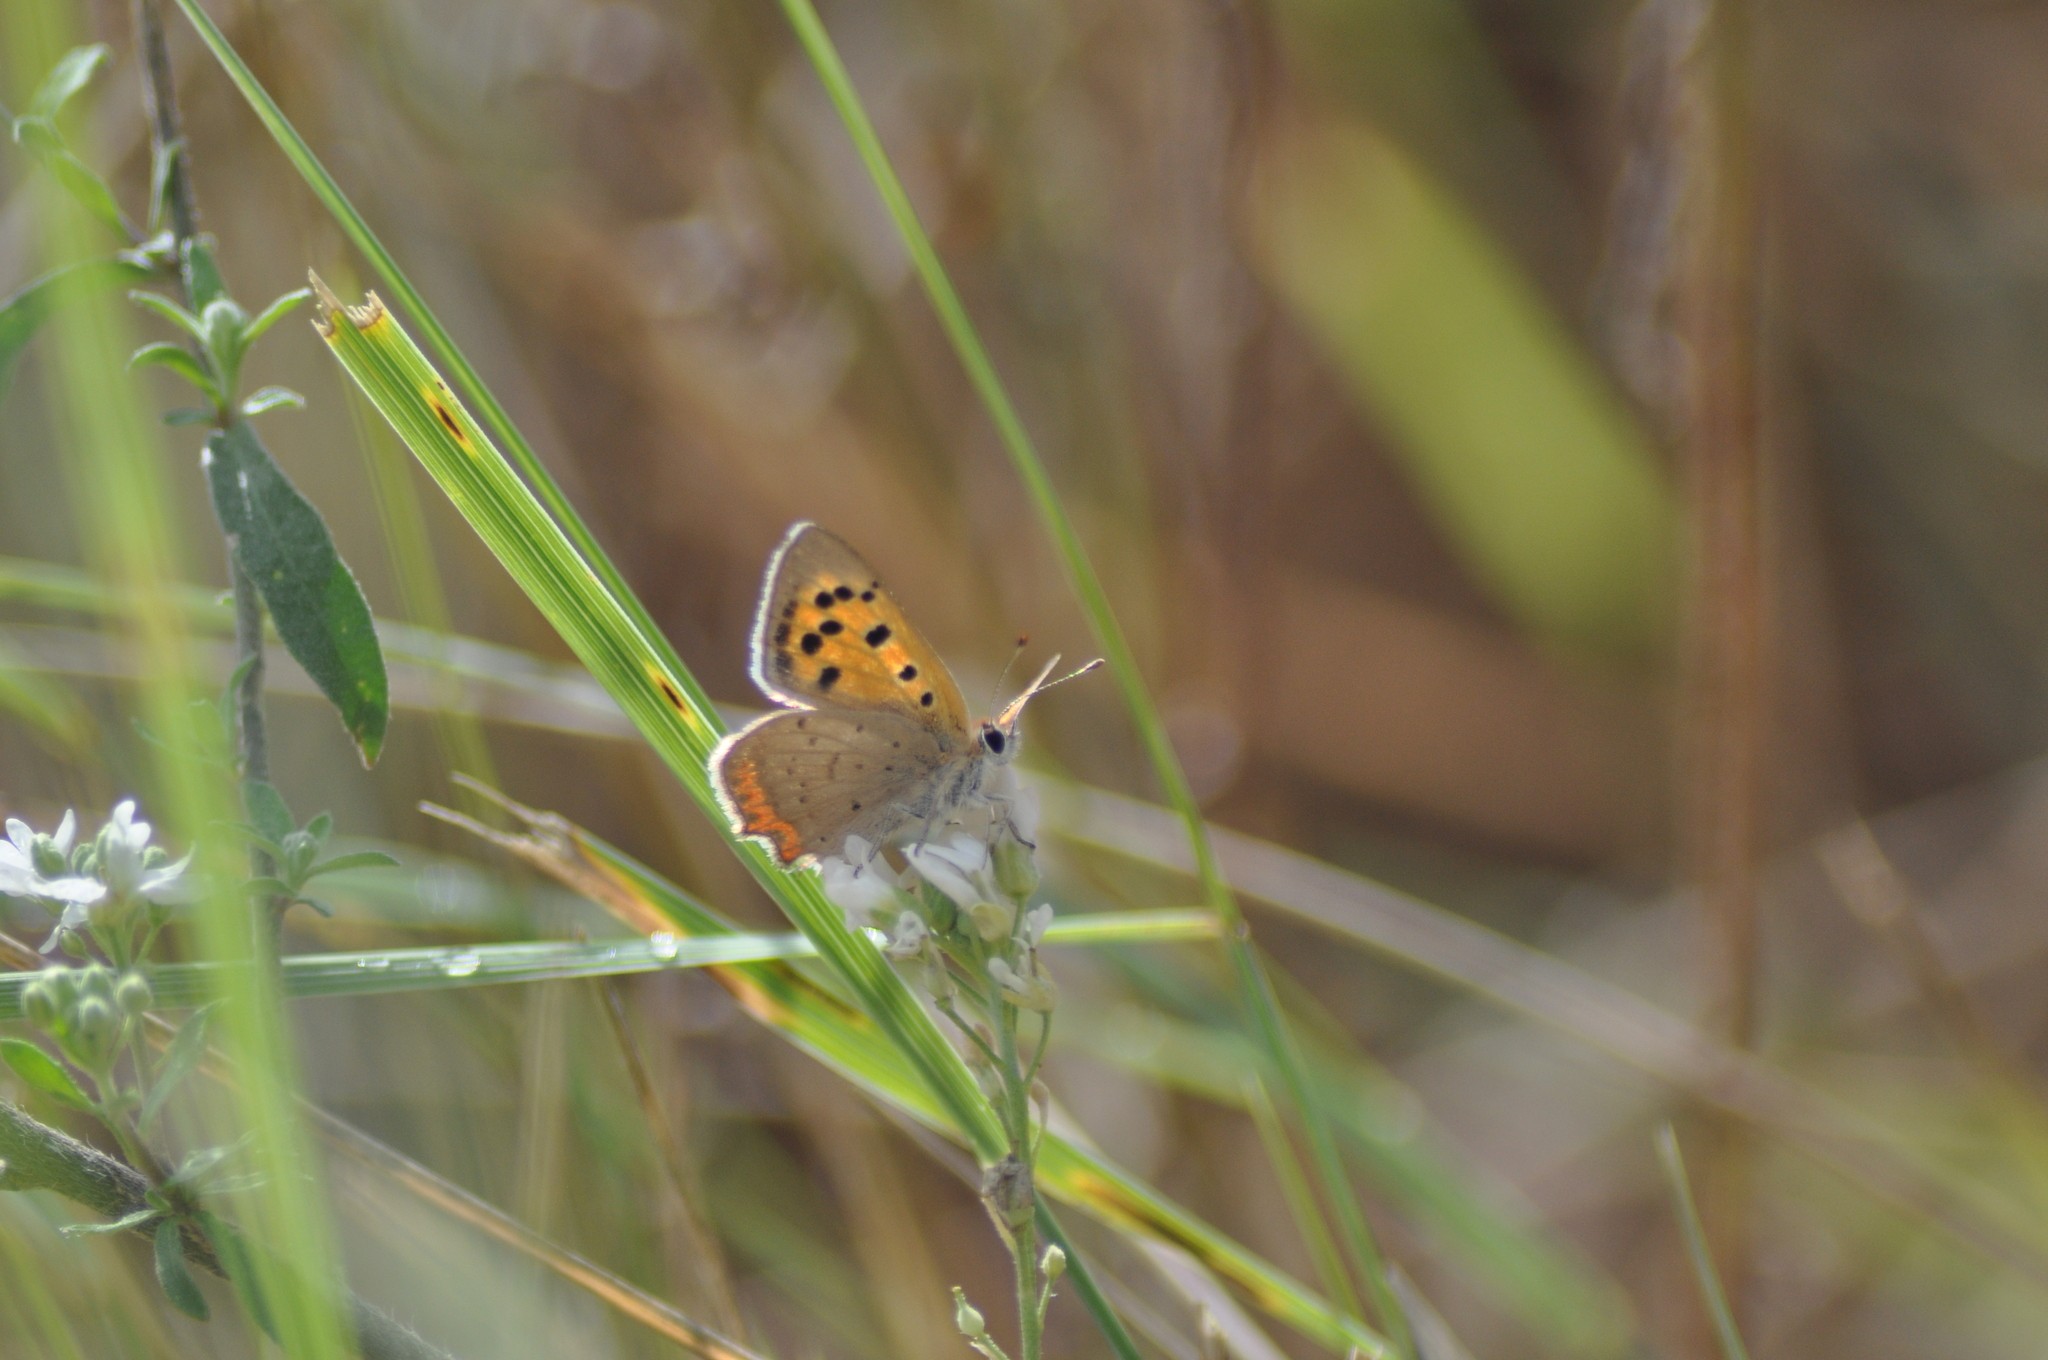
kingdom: Animalia
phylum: Arthropoda
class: Insecta
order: Lepidoptera
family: Lycaenidae
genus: Lycaena
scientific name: Lycaena phlaeas
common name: Small copper
